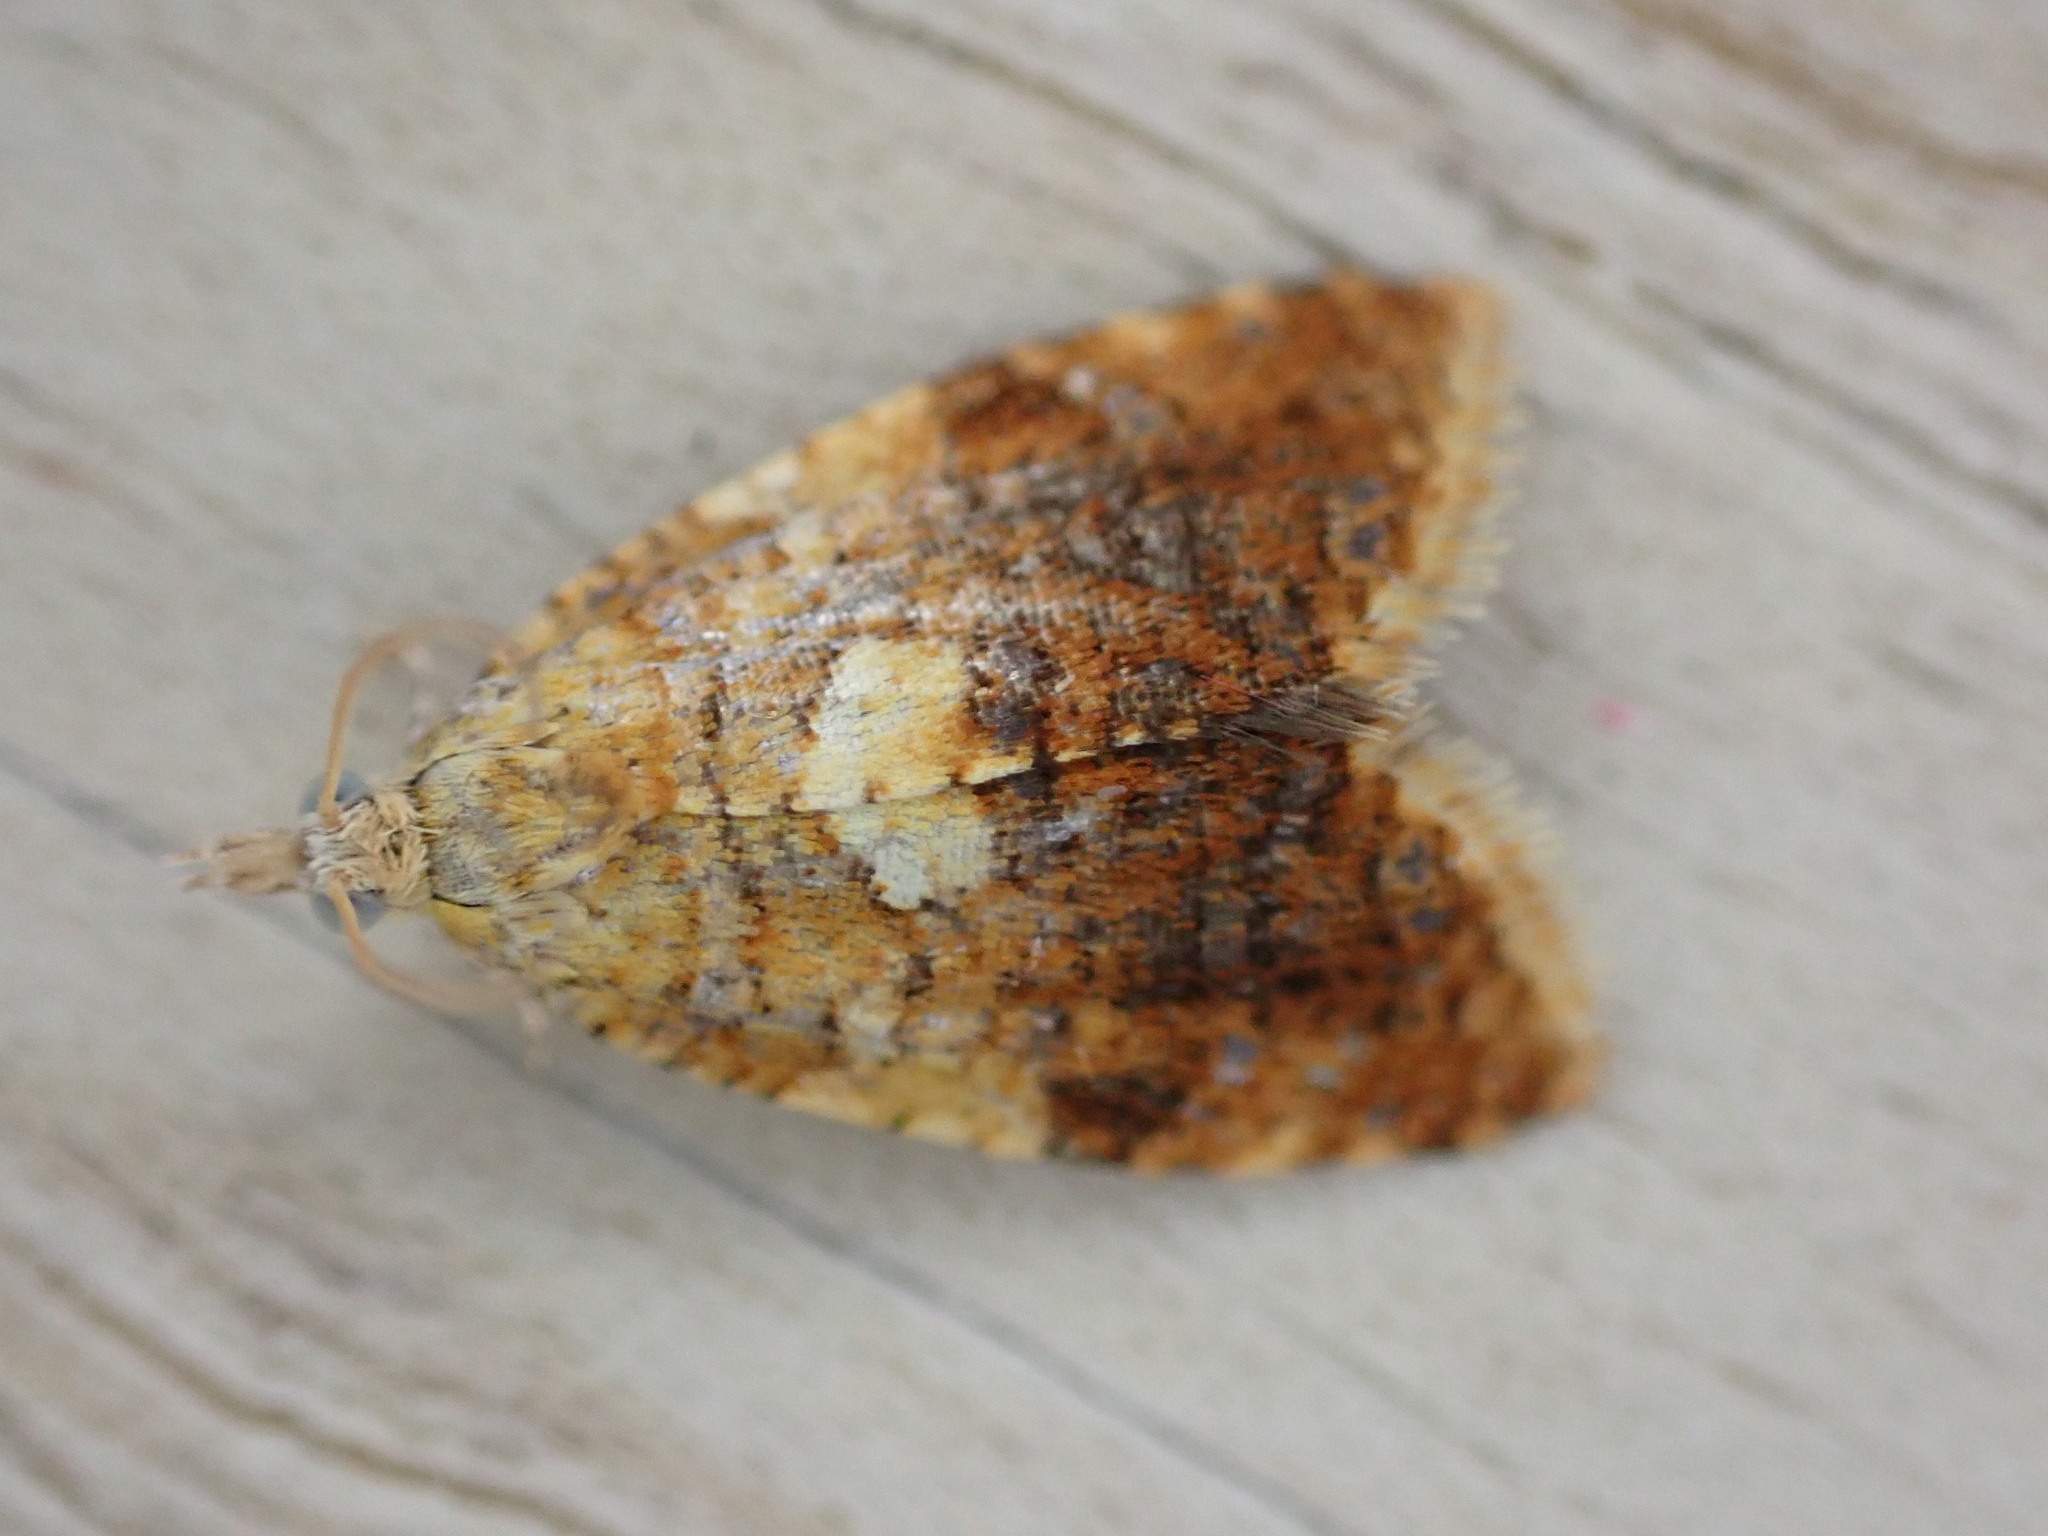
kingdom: Animalia
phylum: Arthropoda
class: Insecta
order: Lepidoptera
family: Tortricidae
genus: Pseudargyrotoza
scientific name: Pseudargyrotoza conwagana
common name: Yellow-spot twist
